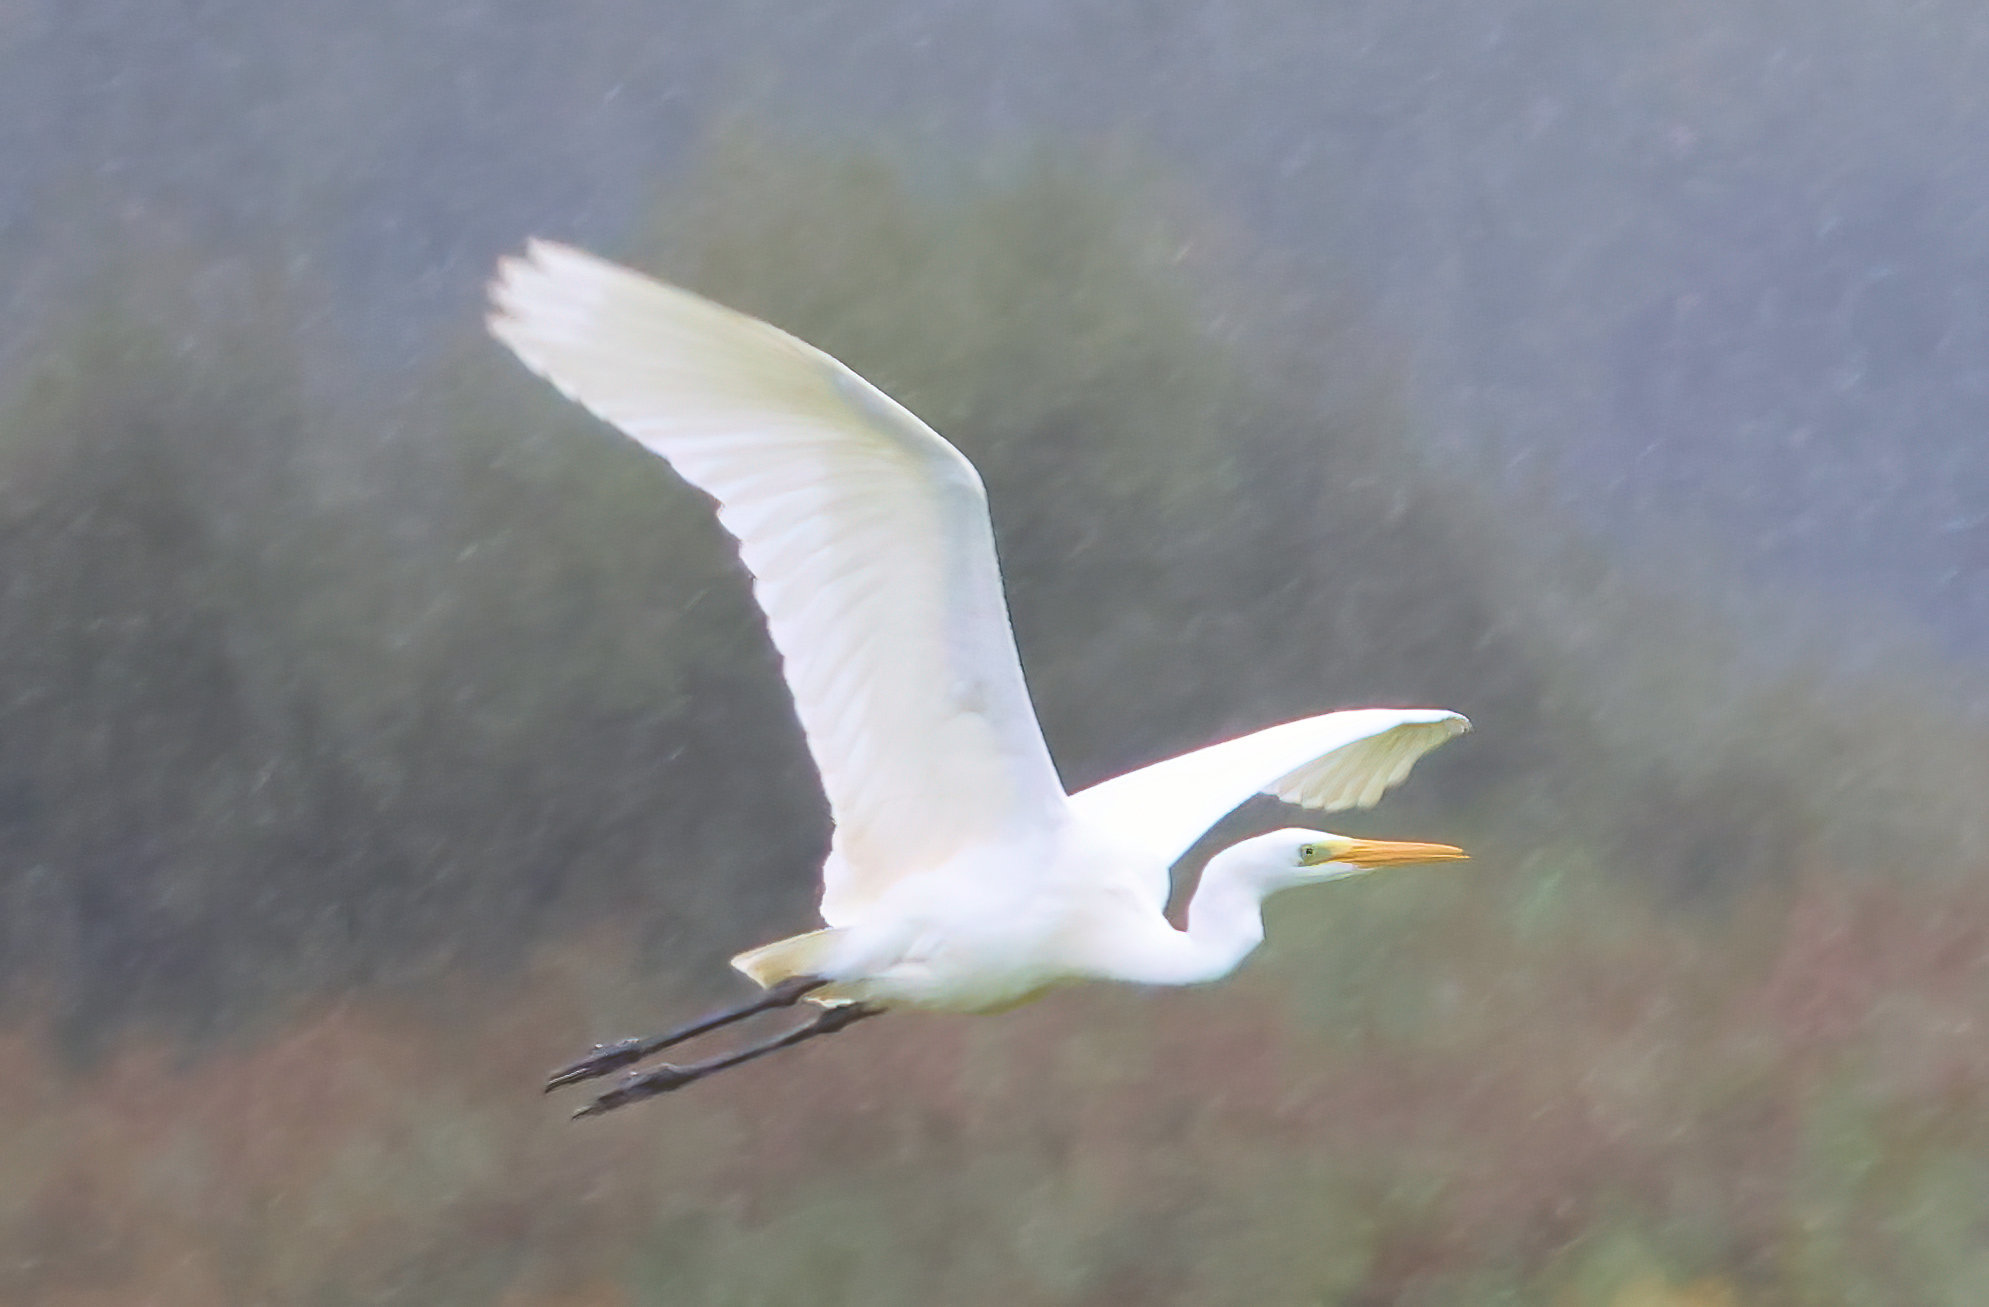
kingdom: Animalia
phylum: Chordata
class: Aves
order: Pelecaniformes
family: Ardeidae
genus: Ardea
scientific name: Ardea alba
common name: Great egret
